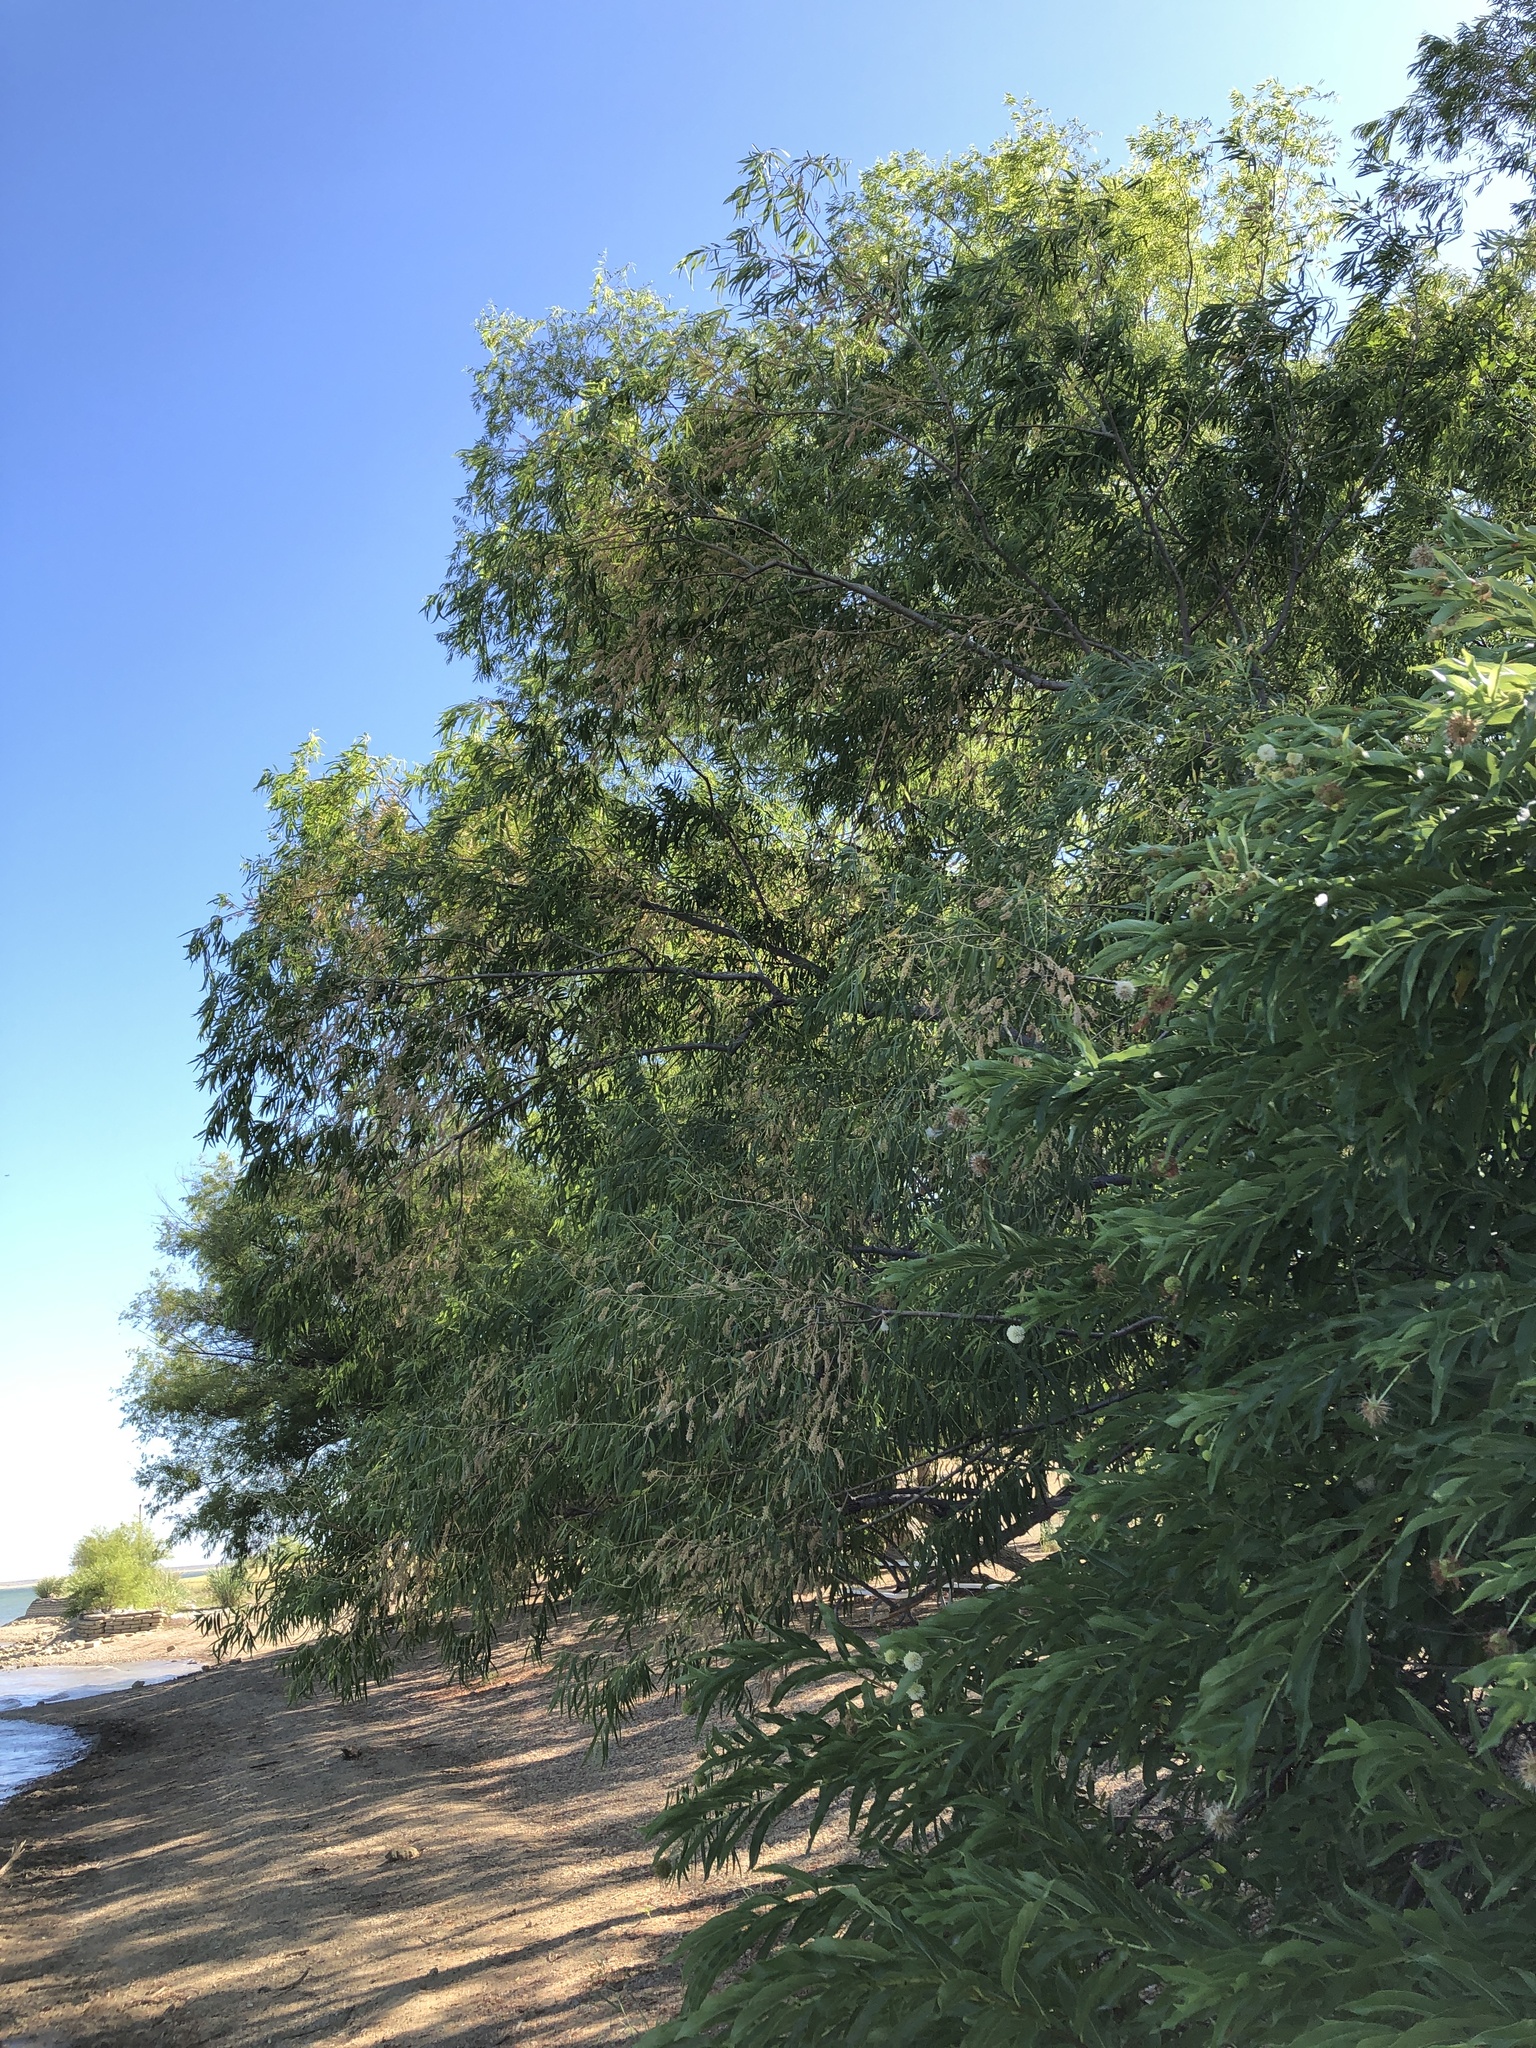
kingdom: Plantae
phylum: Tracheophyta
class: Magnoliopsida
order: Malpighiales
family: Salicaceae
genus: Salix
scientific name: Salix nigra
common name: Black willow
